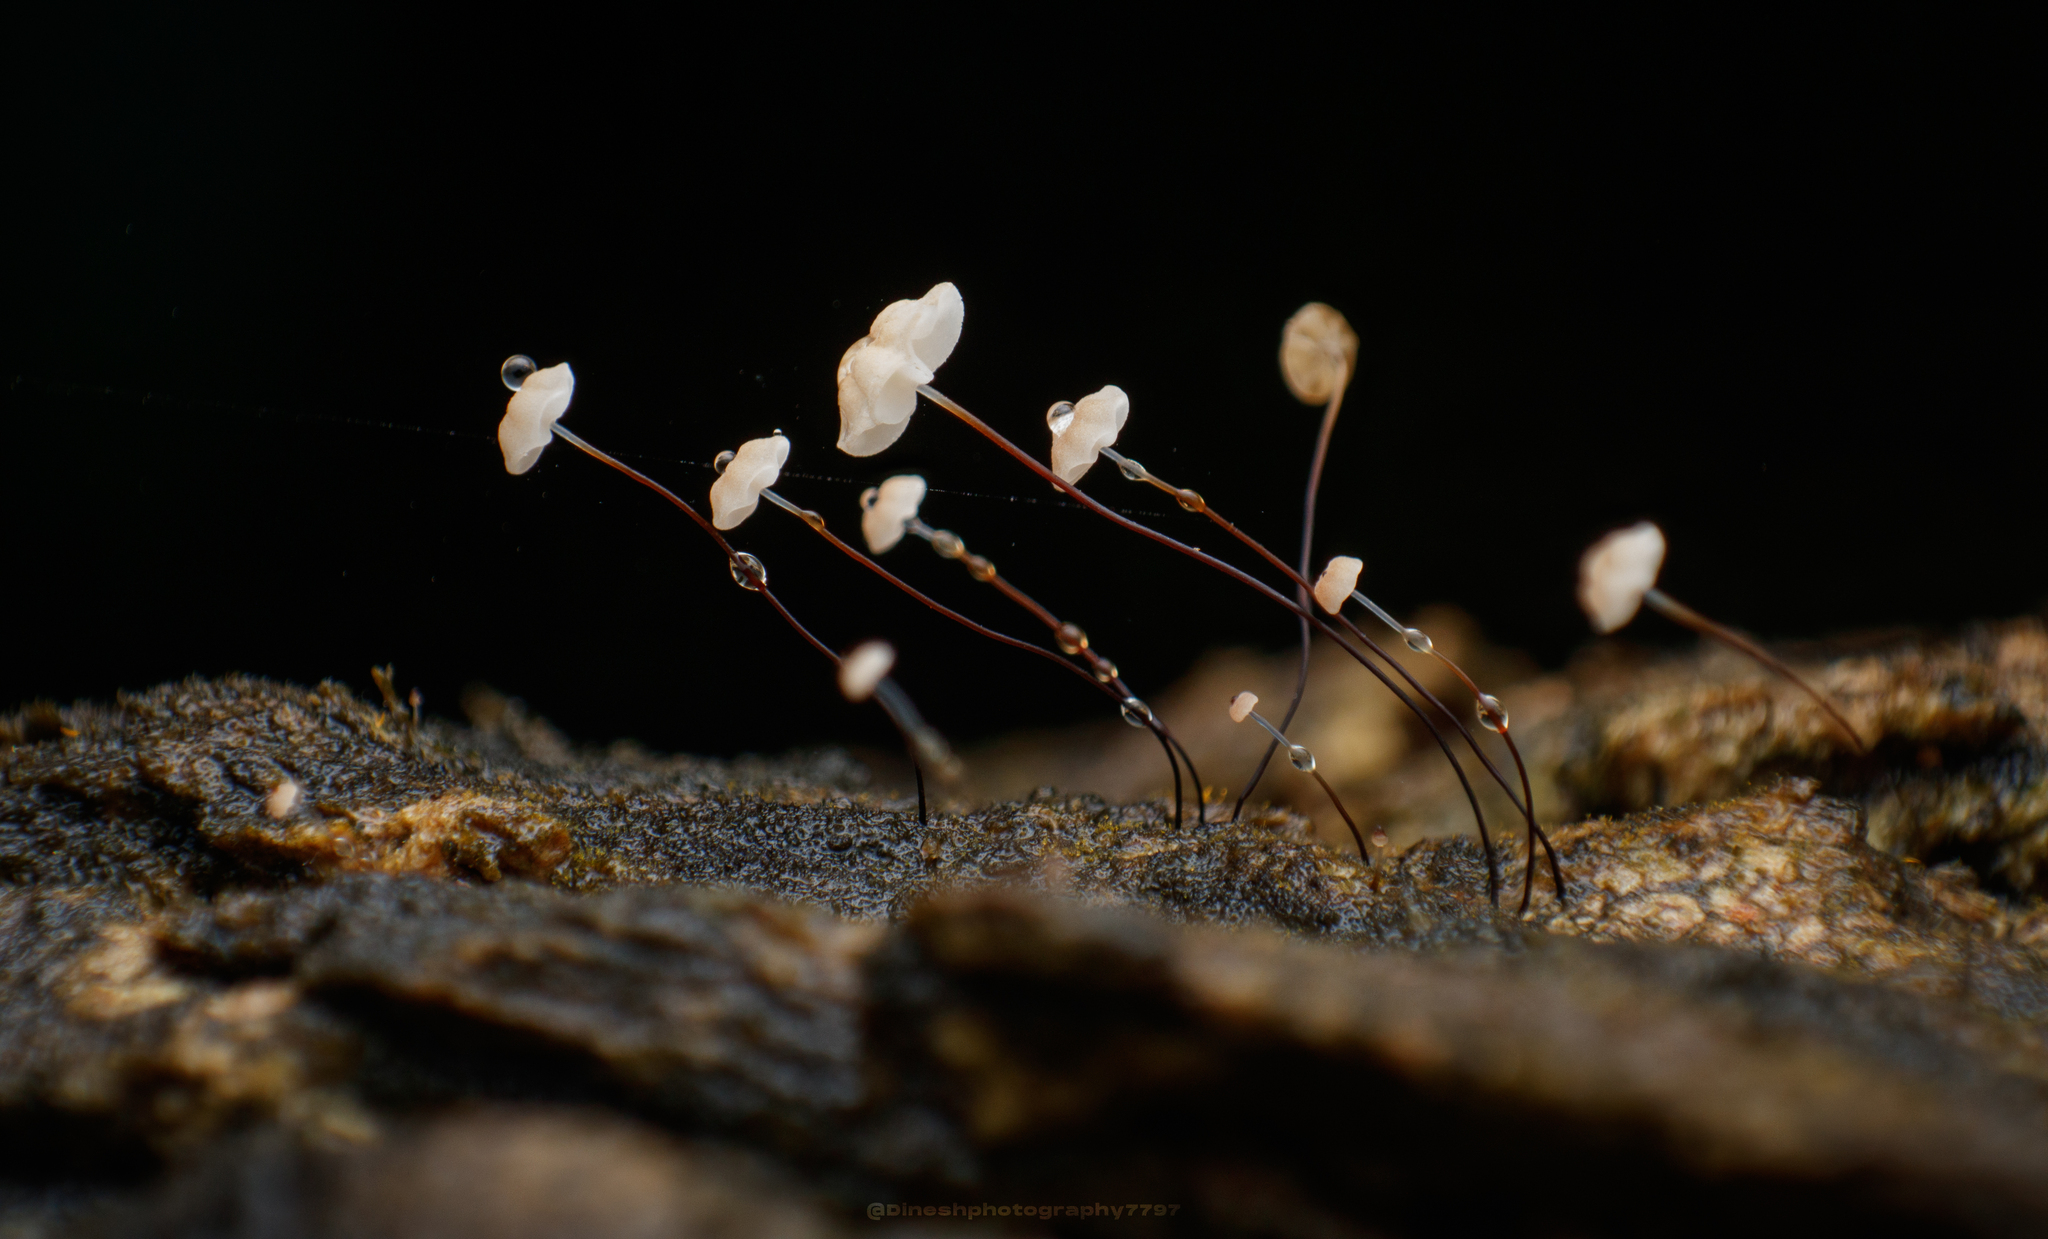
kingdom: Fungi
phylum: Basidiomycota
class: Agaricomycetes
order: Agaricales
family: Marasmiaceae
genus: Marasmius
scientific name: Marasmius crinis-equi
